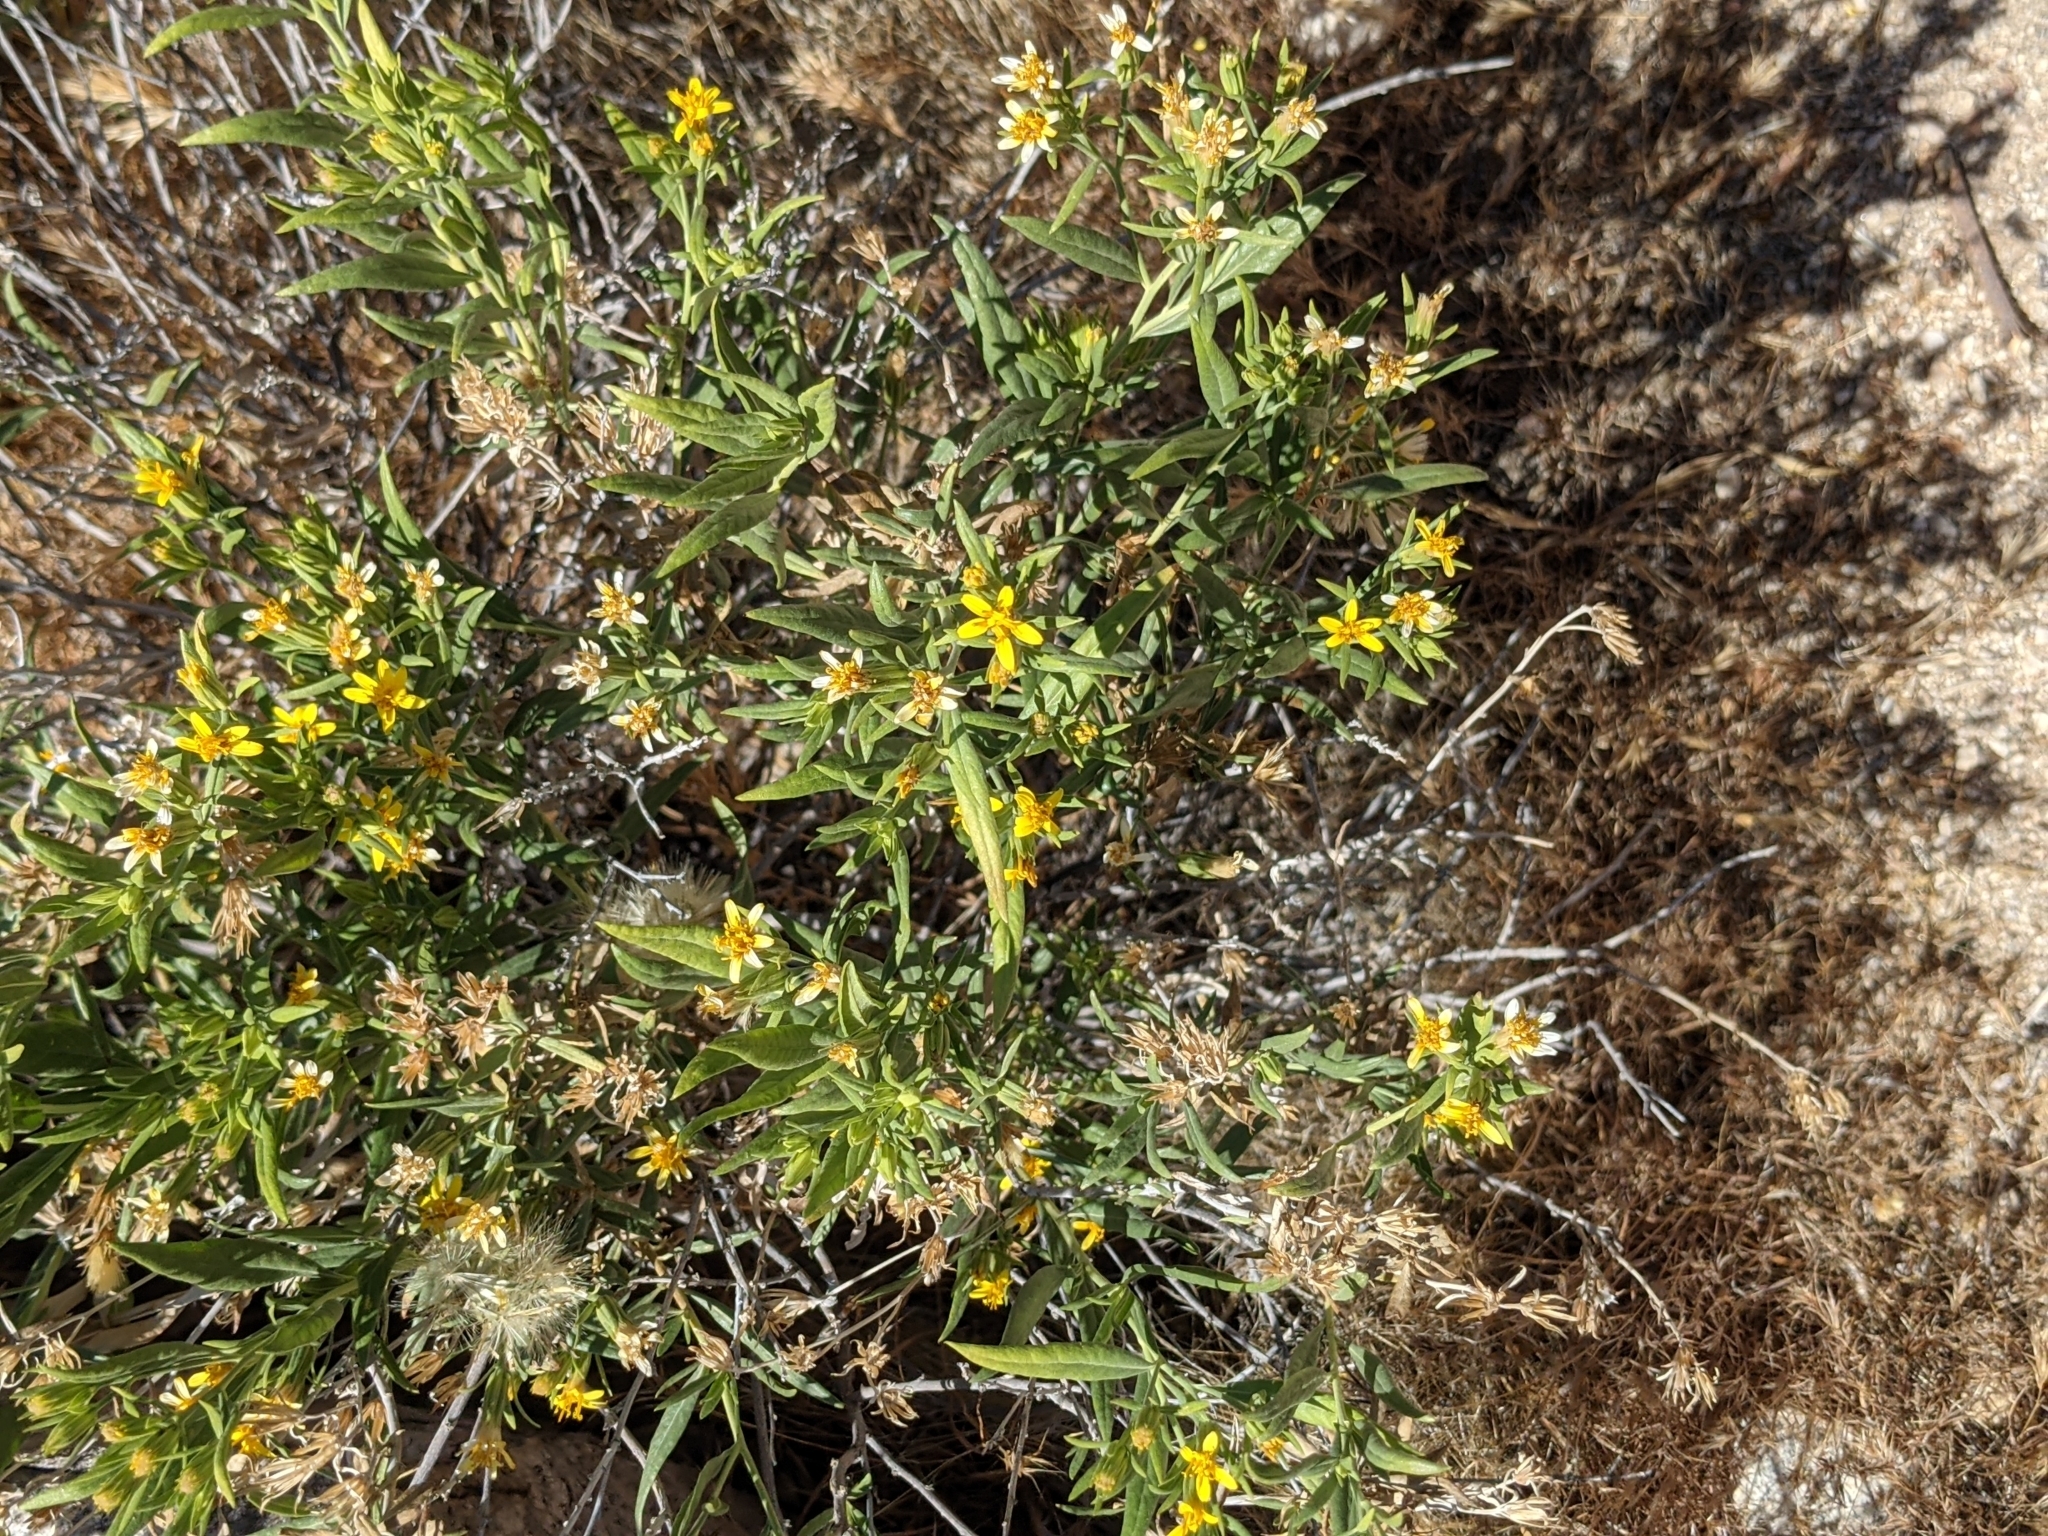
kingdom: Plantae
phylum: Tracheophyta
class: Magnoliopsida
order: Asterales
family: Asteraceae
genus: Trixis
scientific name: Trixis californica
